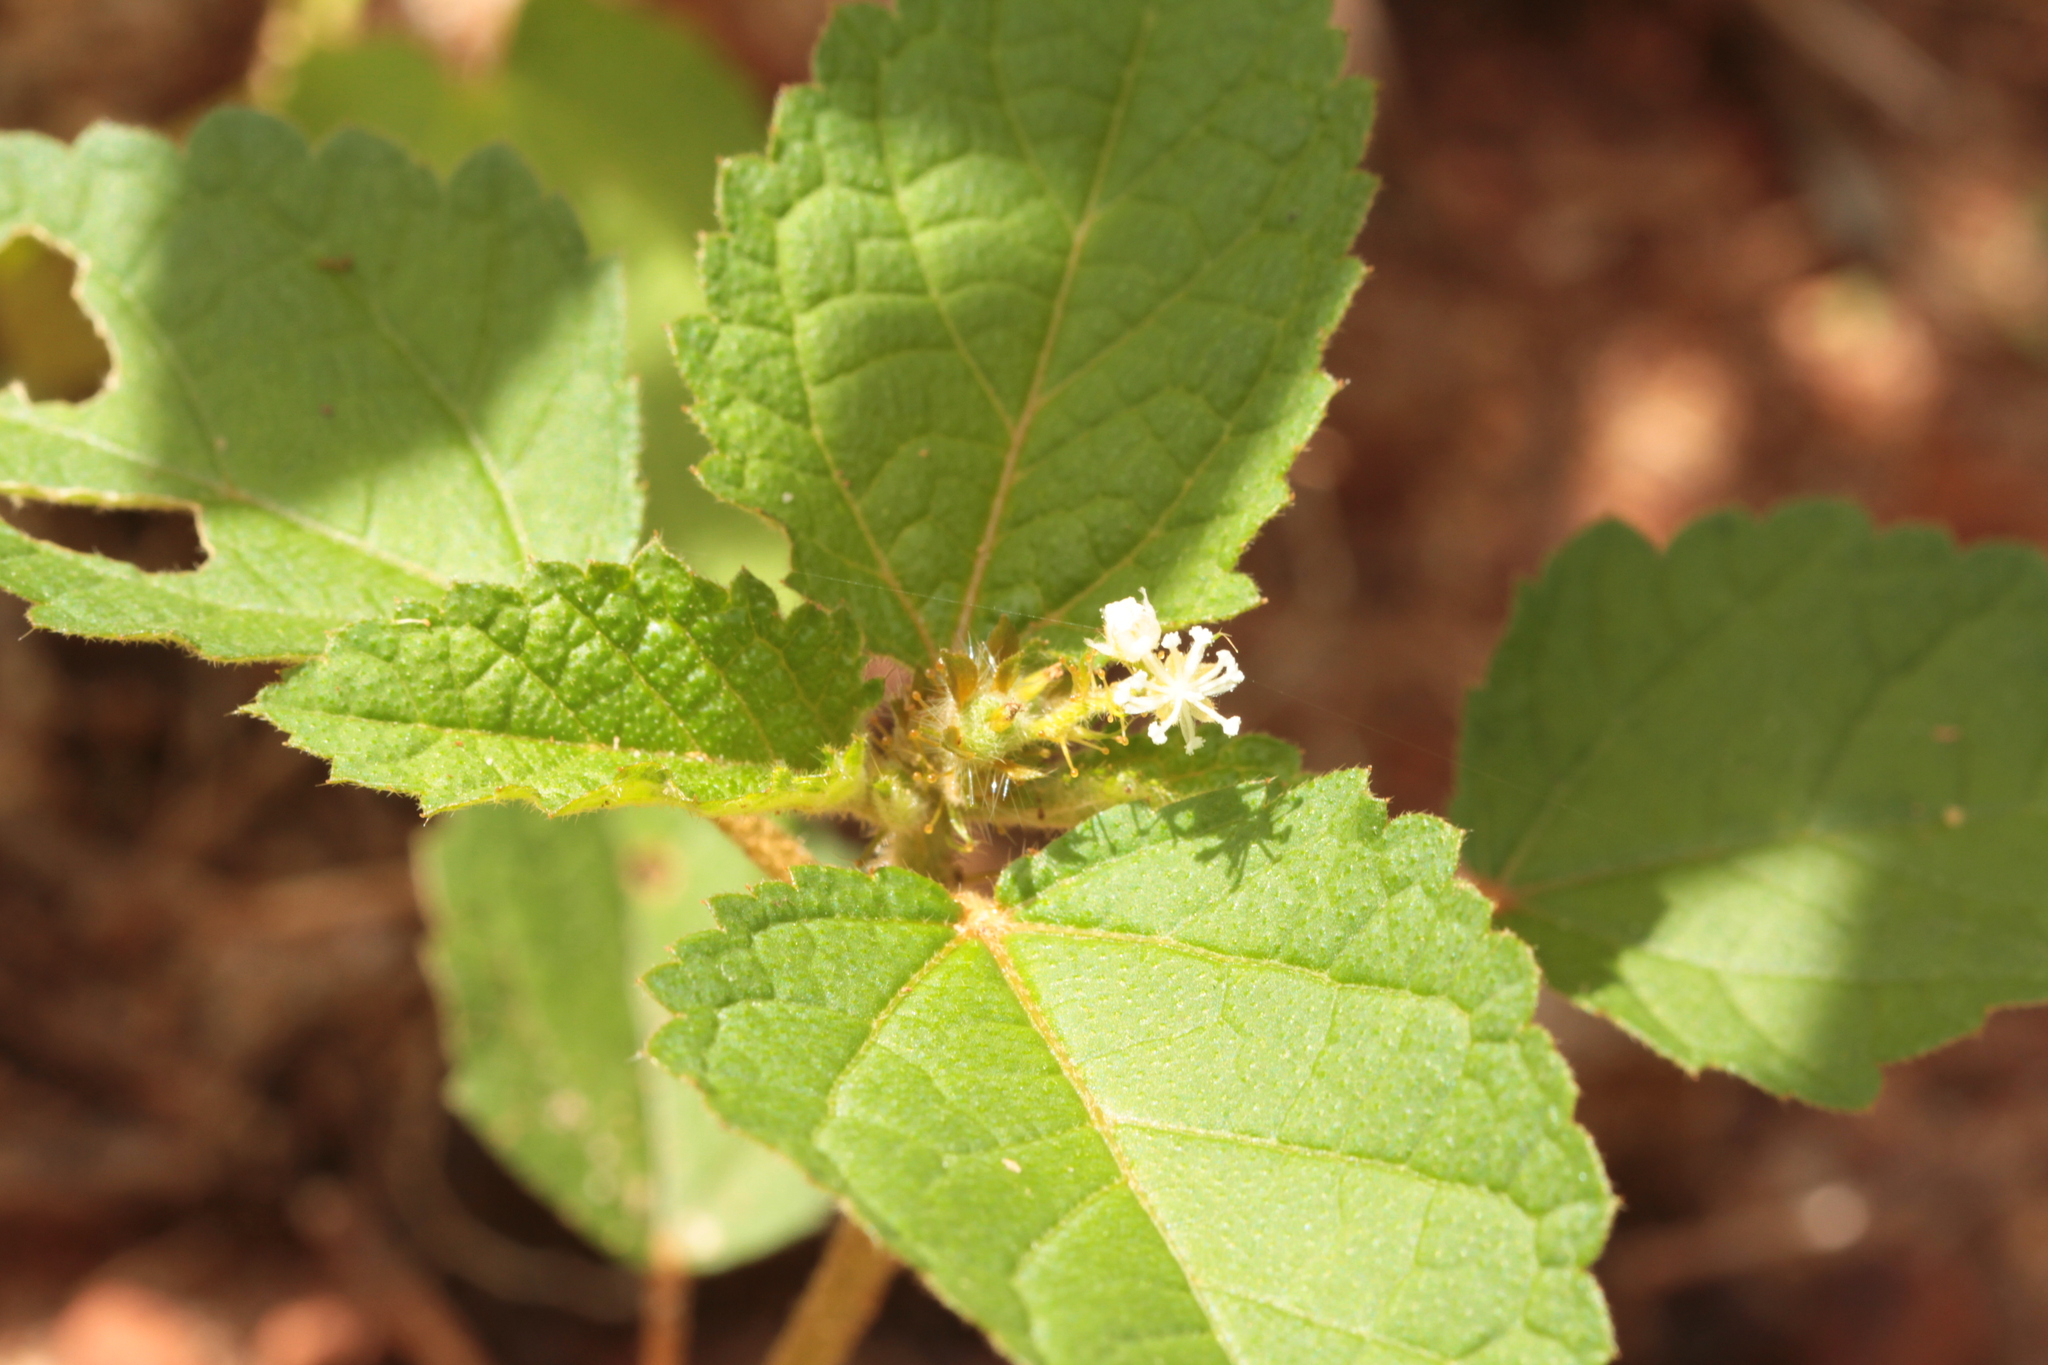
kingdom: Plantae
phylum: Tracheophyta
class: Magnoliopsida
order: Malpighiales
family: Euphorbiaceae
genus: Croton
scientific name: Croton hirtus
